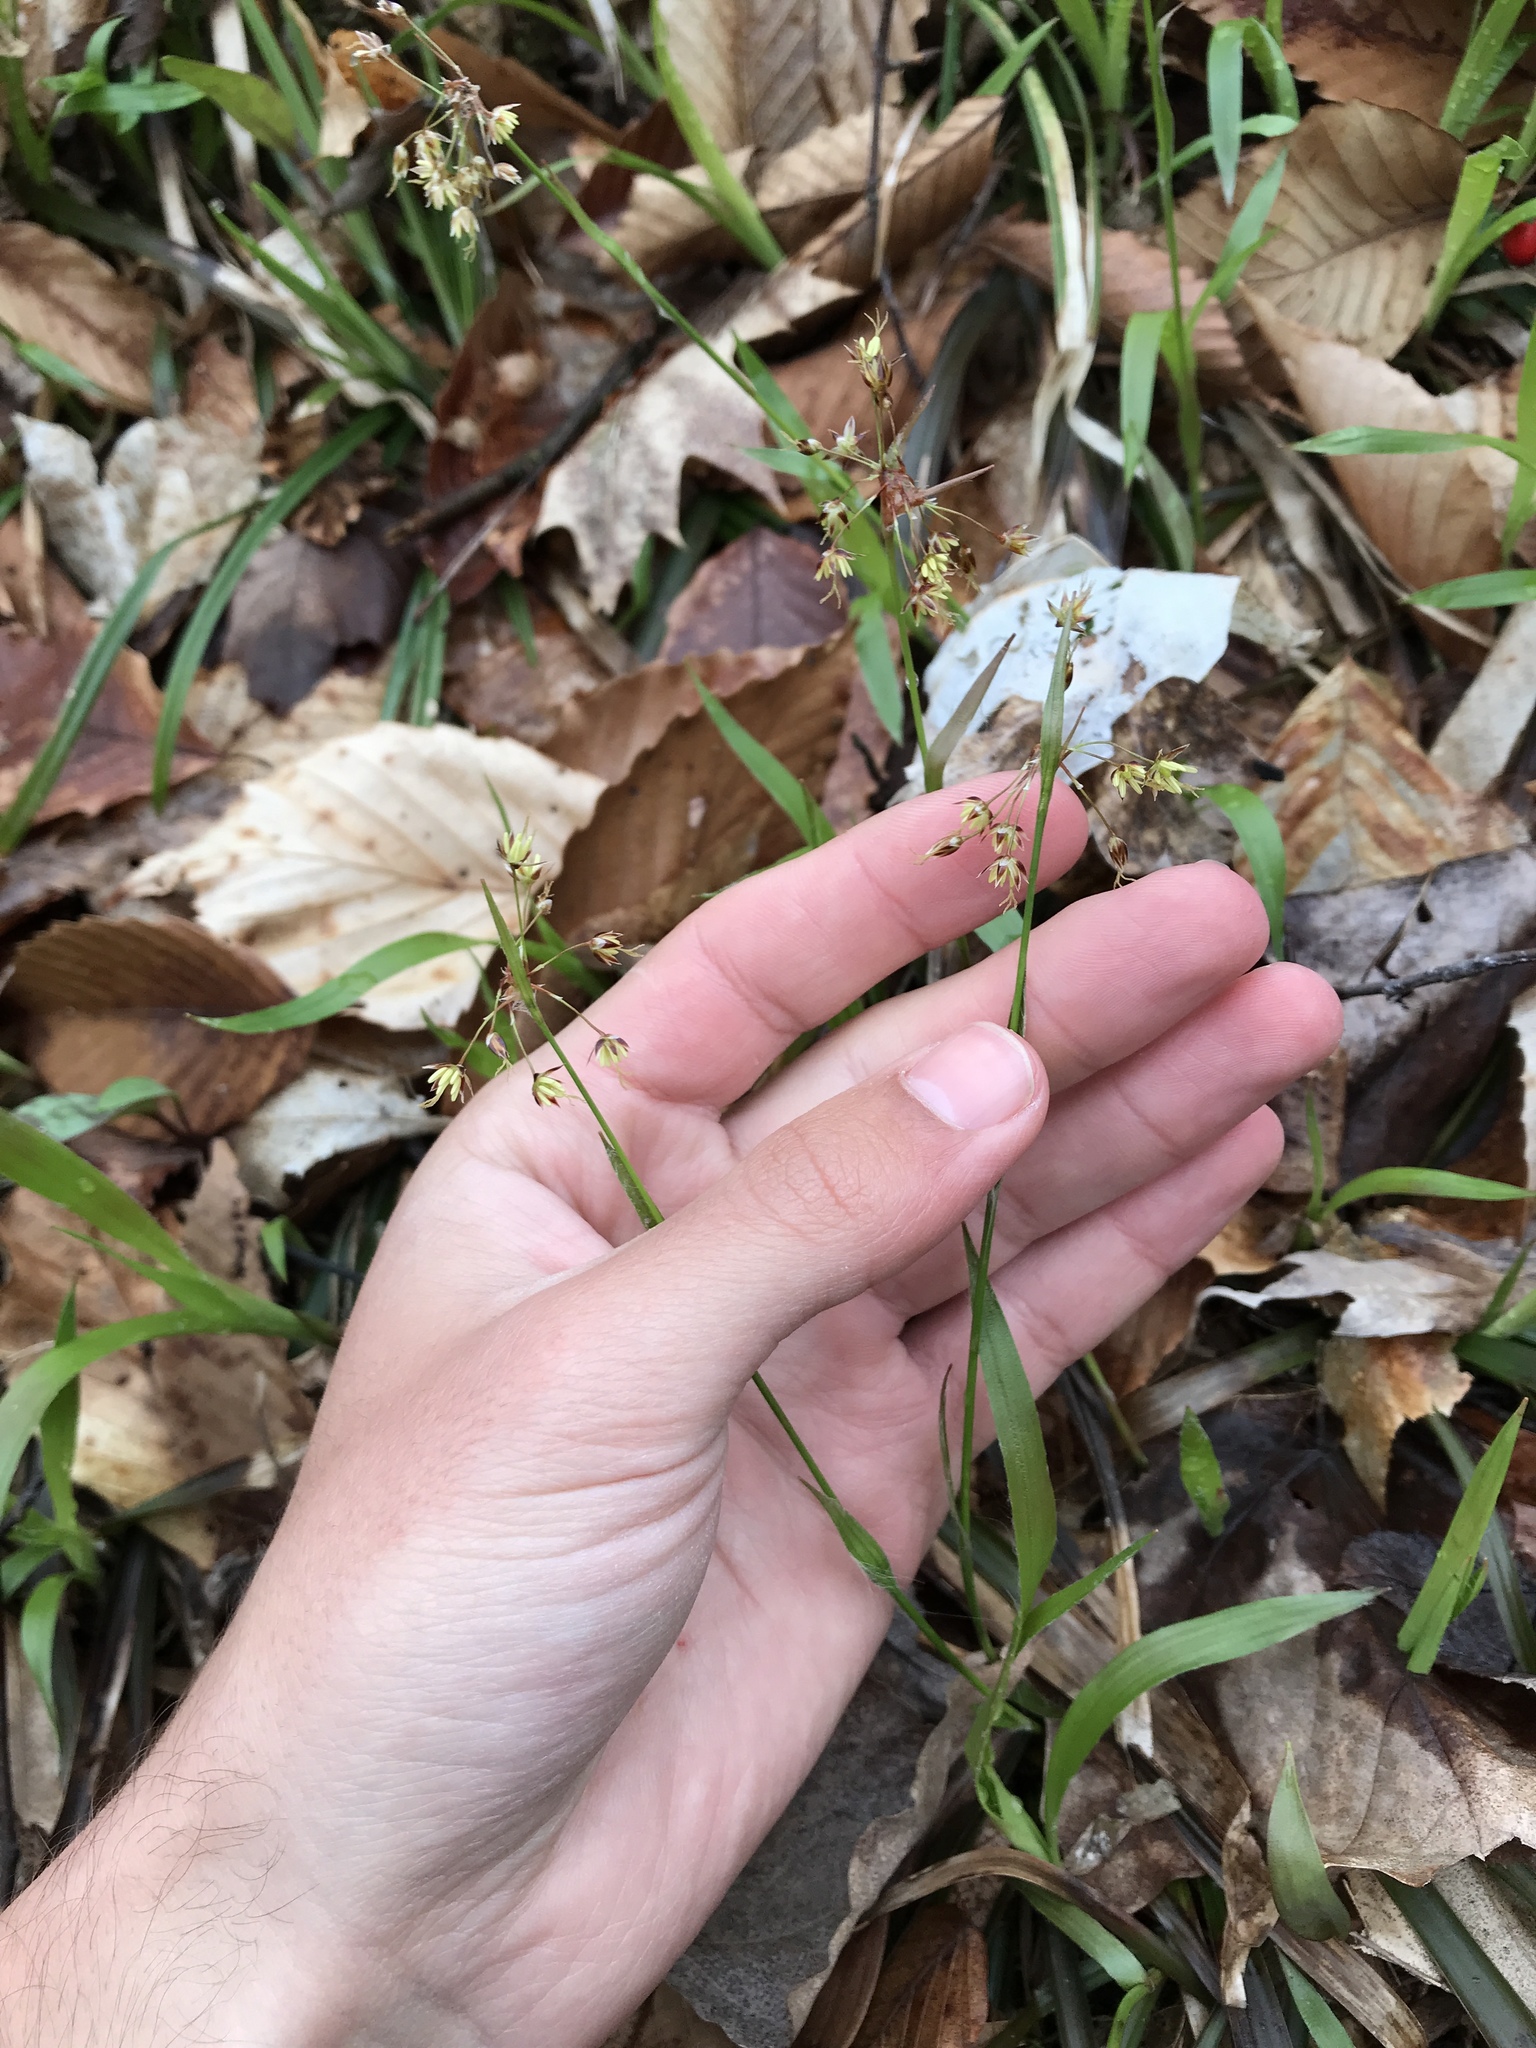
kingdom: Plantae
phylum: Tracheophyta
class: Liliopsida
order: Poales
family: Juncaceae
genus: Luzula
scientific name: Luzula acuminata
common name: Hairy woodrush
